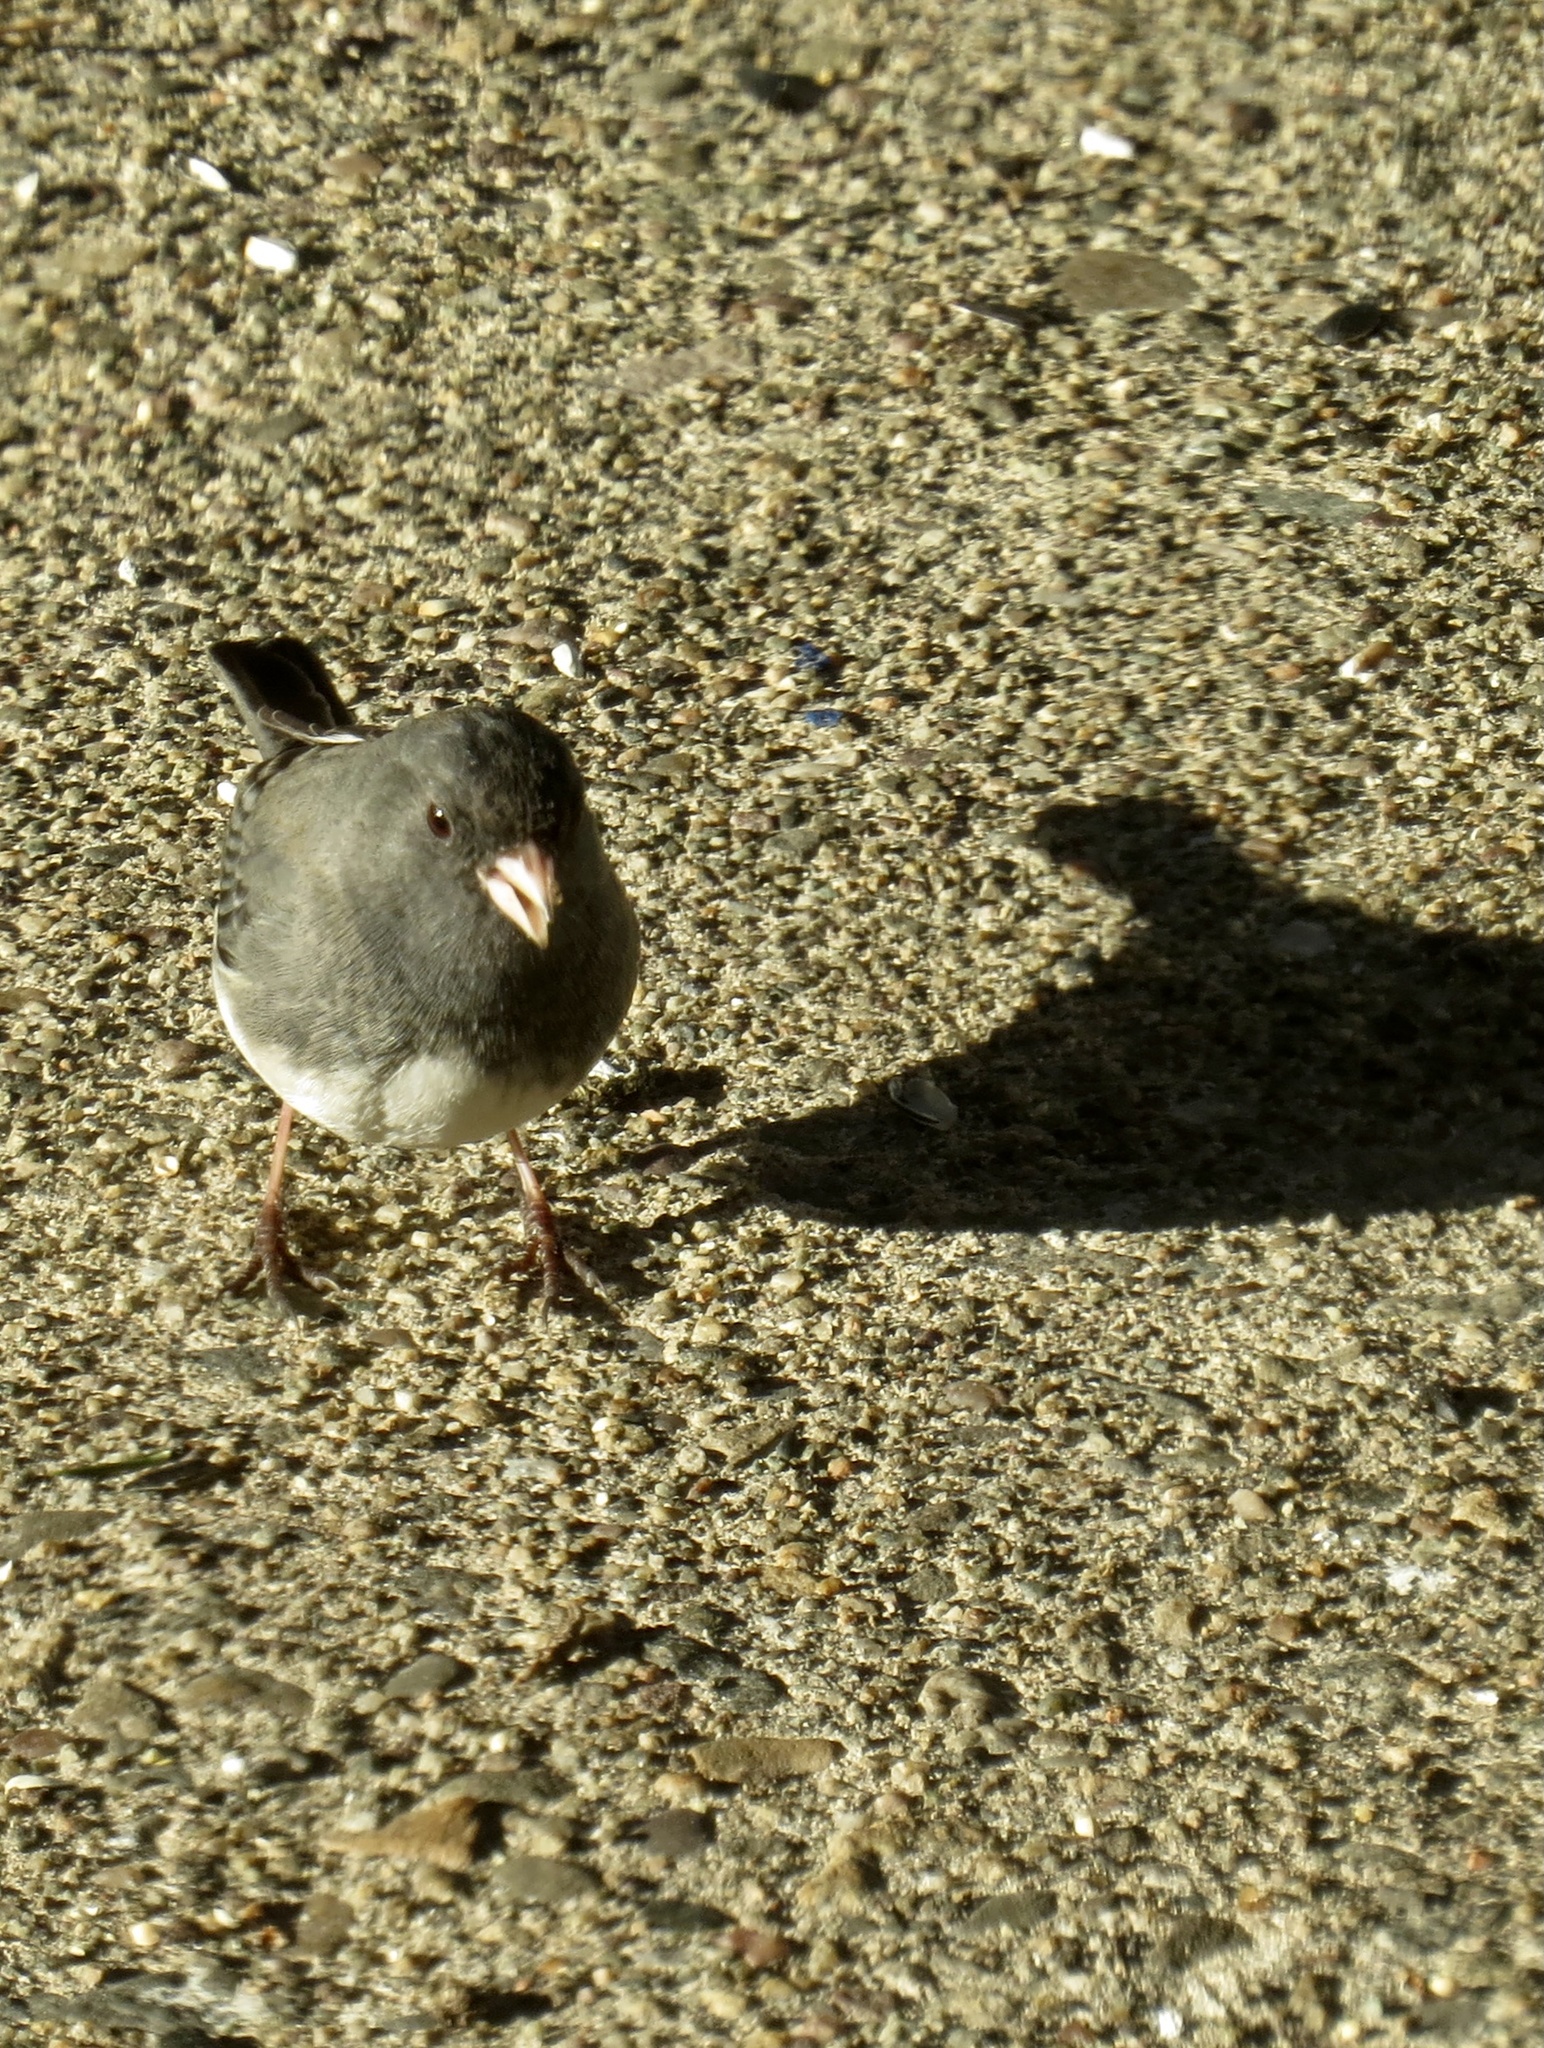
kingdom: Animalia
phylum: Chordata
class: Aves
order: Passeriformes
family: Passerellidae
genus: Junco
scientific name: Junco hyemalis
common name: Dark-eyed junco
